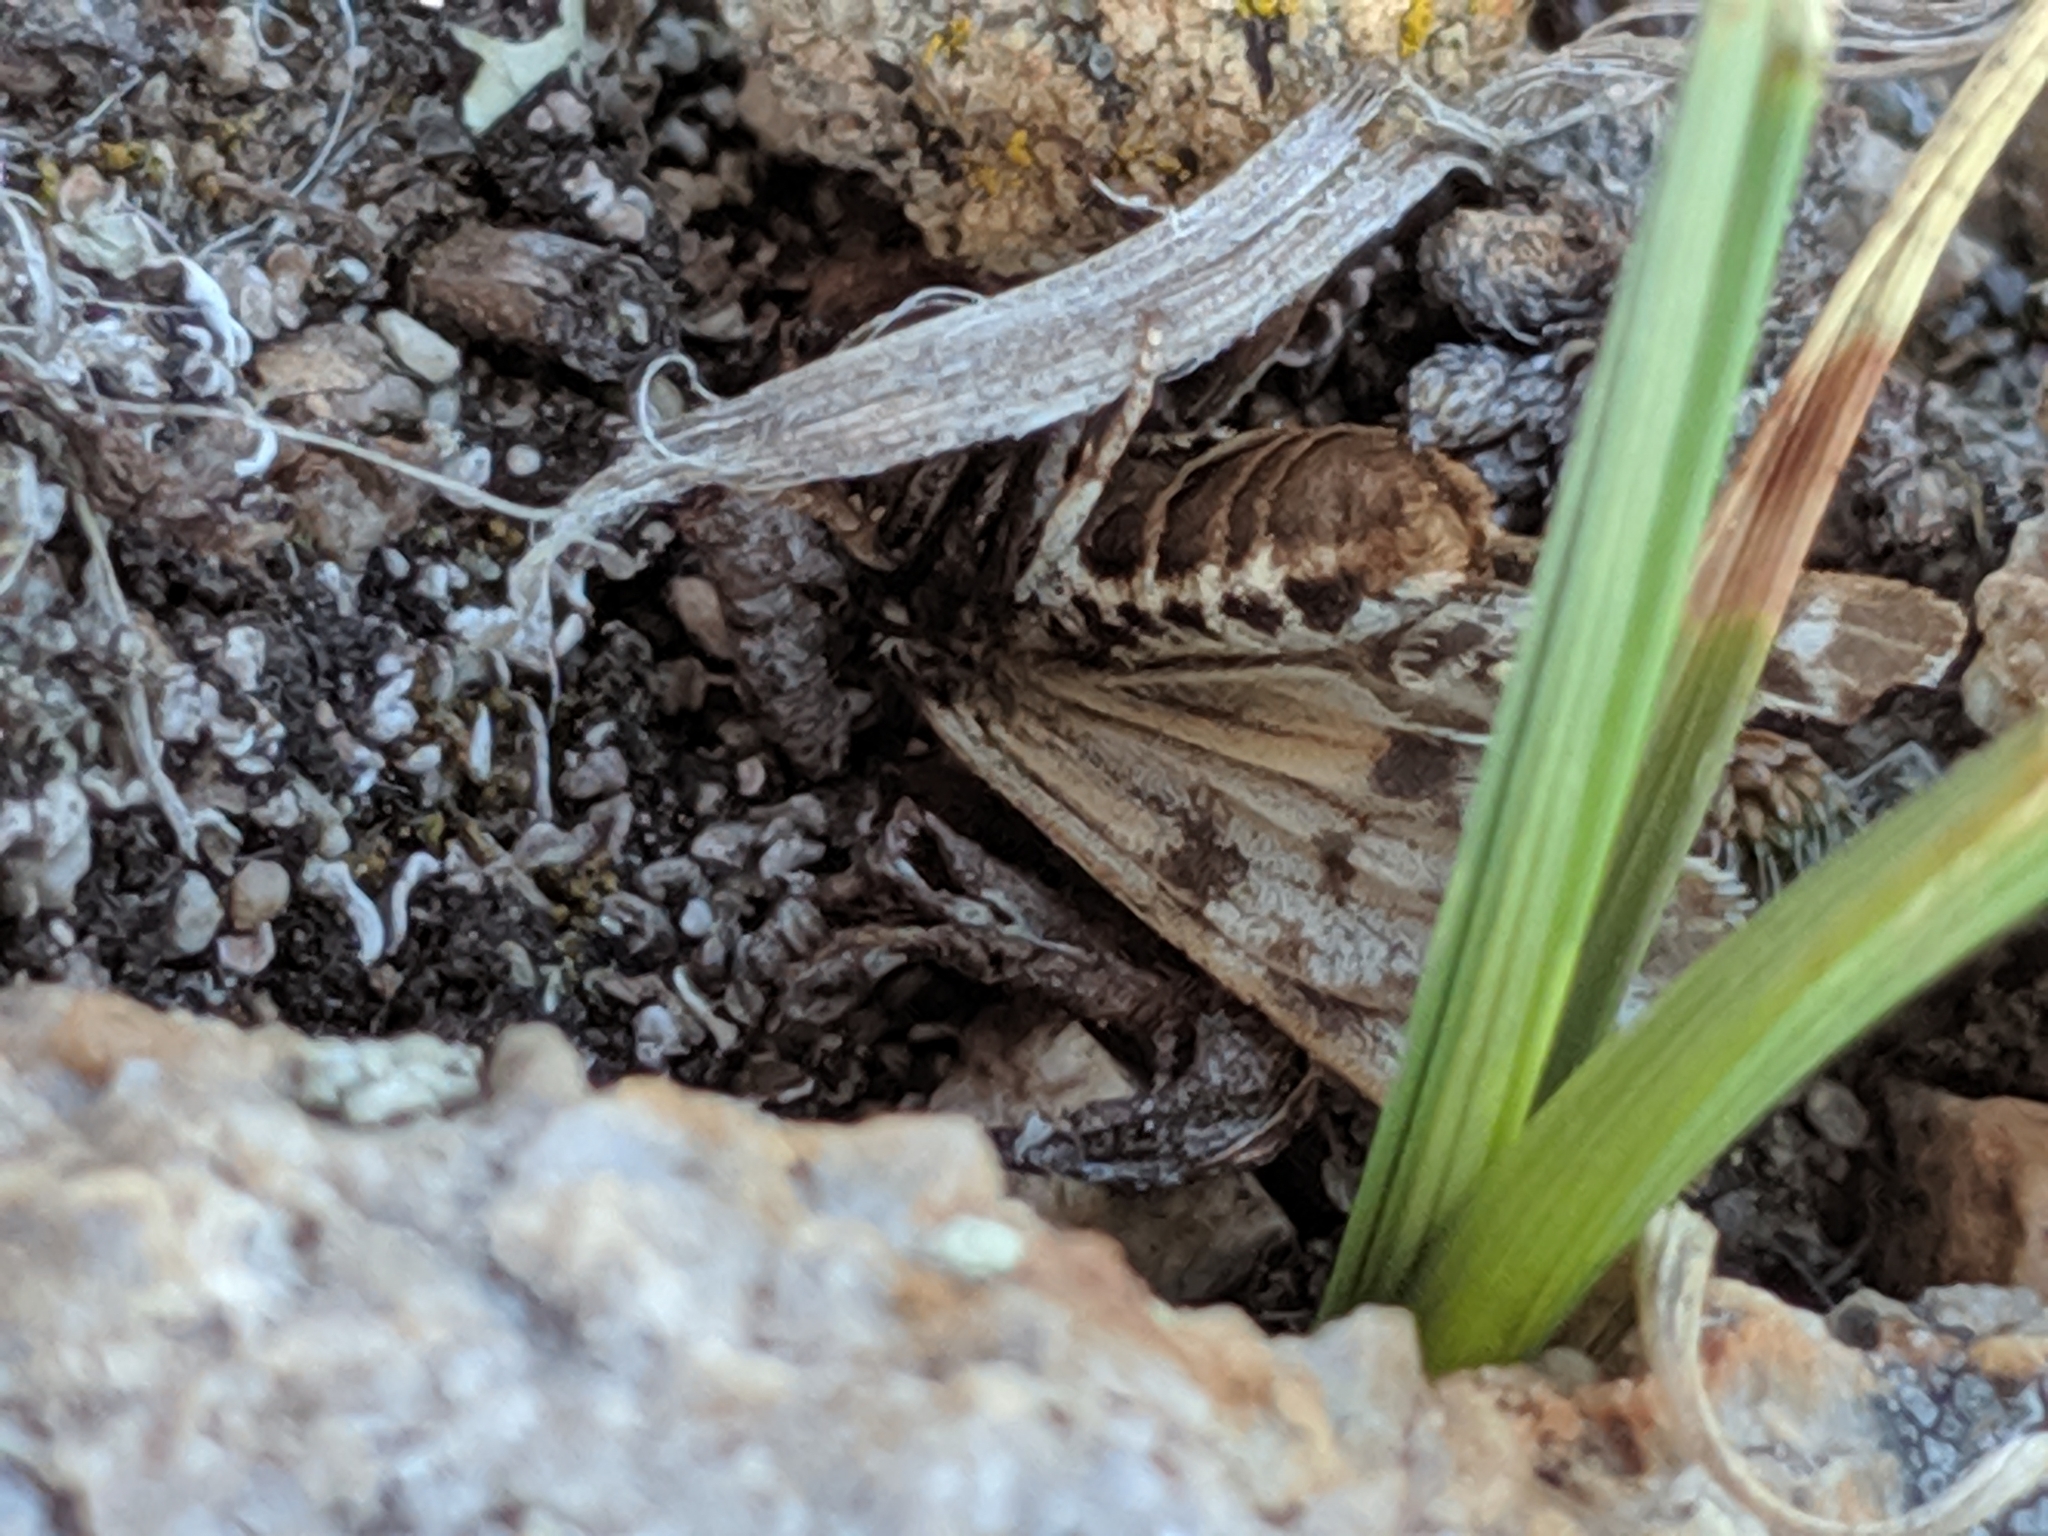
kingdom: Animalia
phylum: Arthropoda
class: Insecta
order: Lepidoptera
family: Erebidae
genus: Apantesis
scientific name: Apantesis
